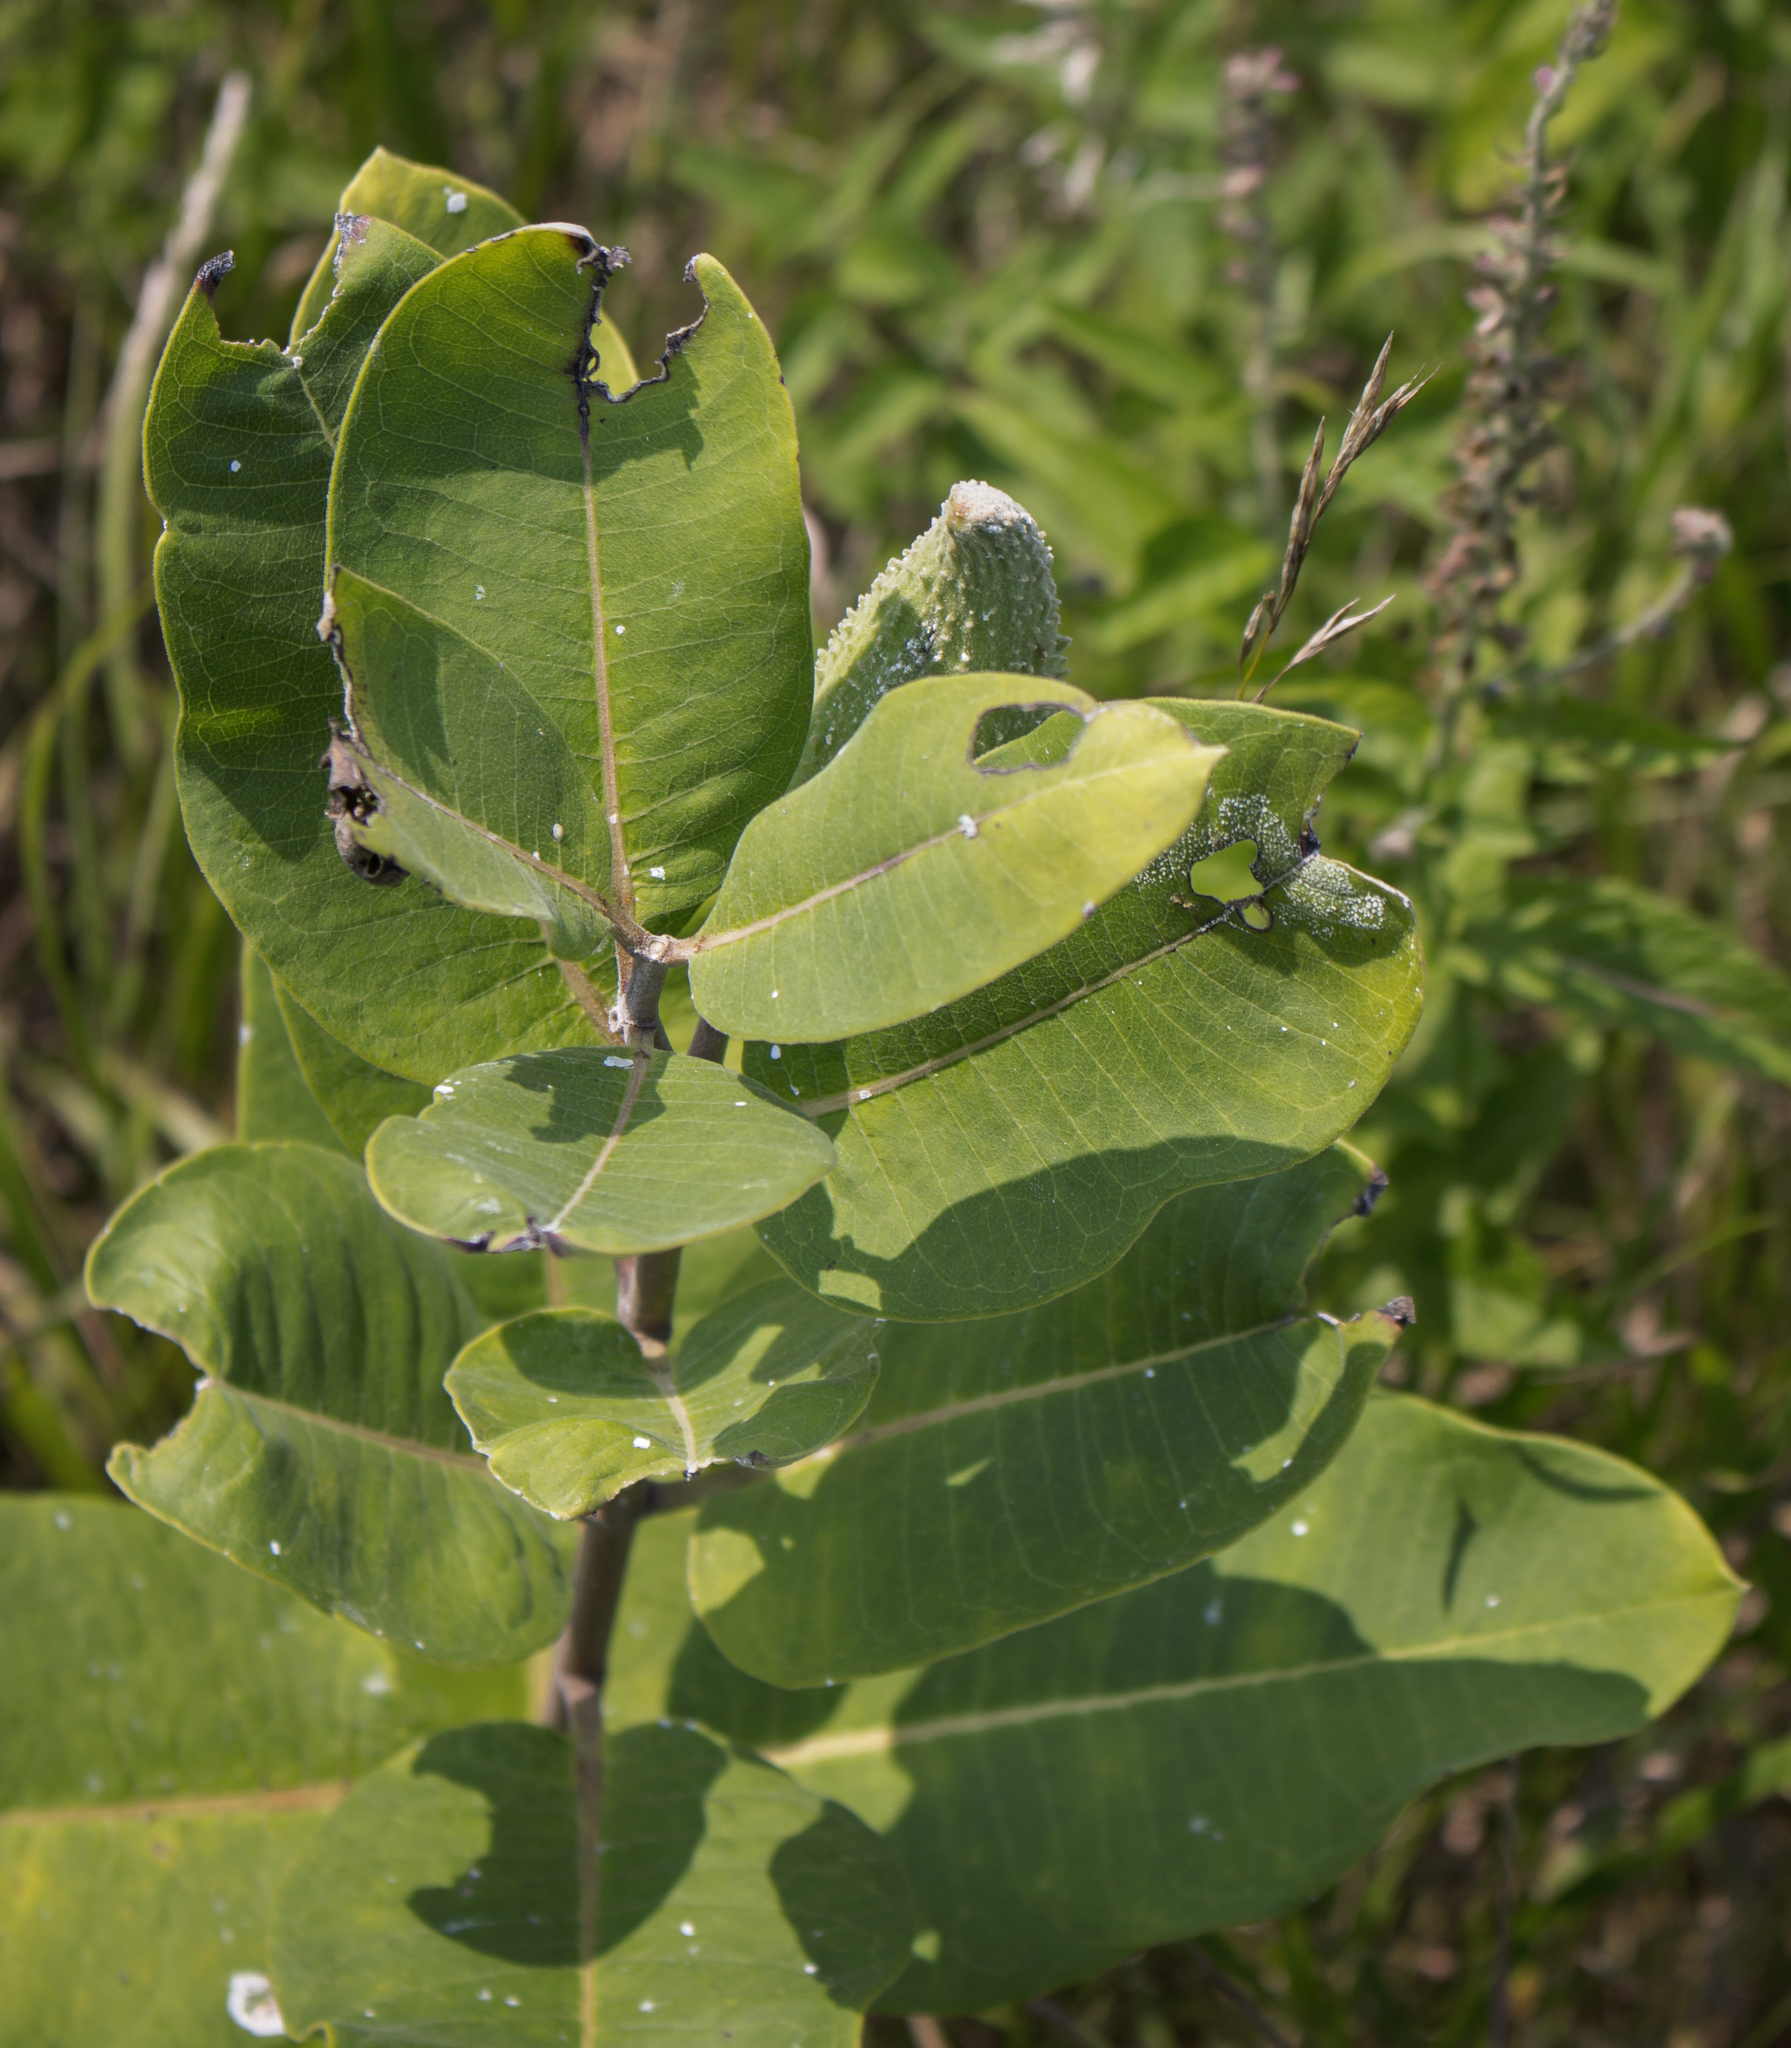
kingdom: Plantae
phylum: Tracheophyta
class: Magnoliopsida
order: Gentianales
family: Apocynaceae
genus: Asclepias
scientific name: Asclepias syriaca
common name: Common milkweed
